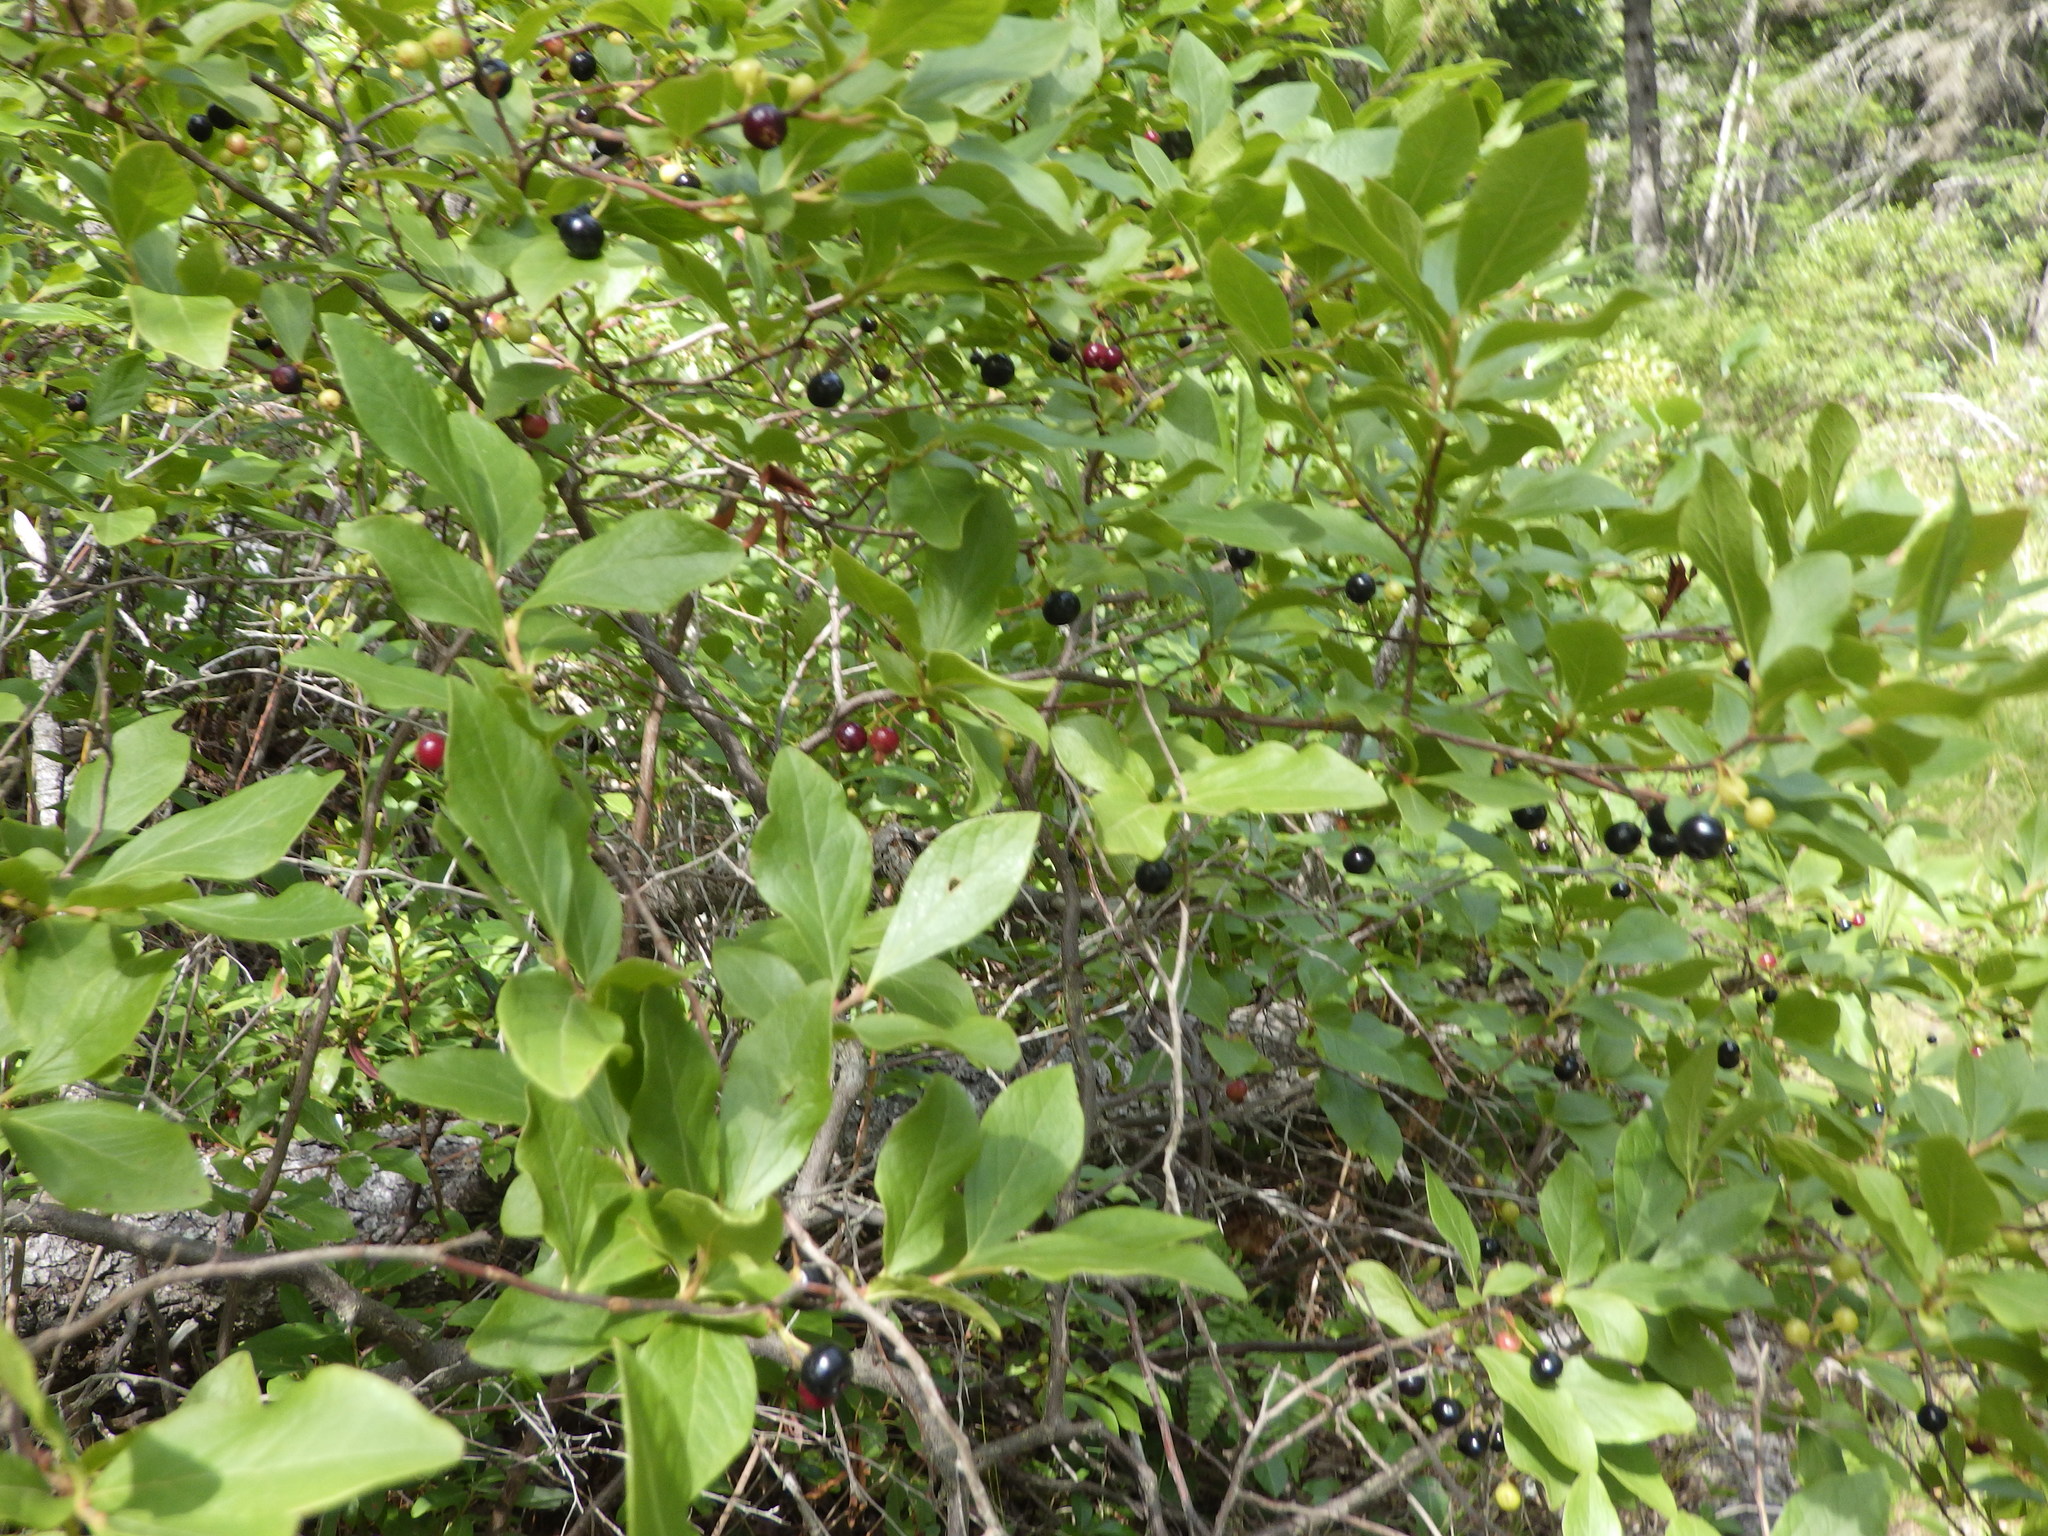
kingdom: Plantae
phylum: Tracheophyta
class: Magnoliopsida
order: Ericales
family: Ericaceae
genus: Gaylussacia
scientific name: Gaylussacia baccata
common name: Black huckleberry
